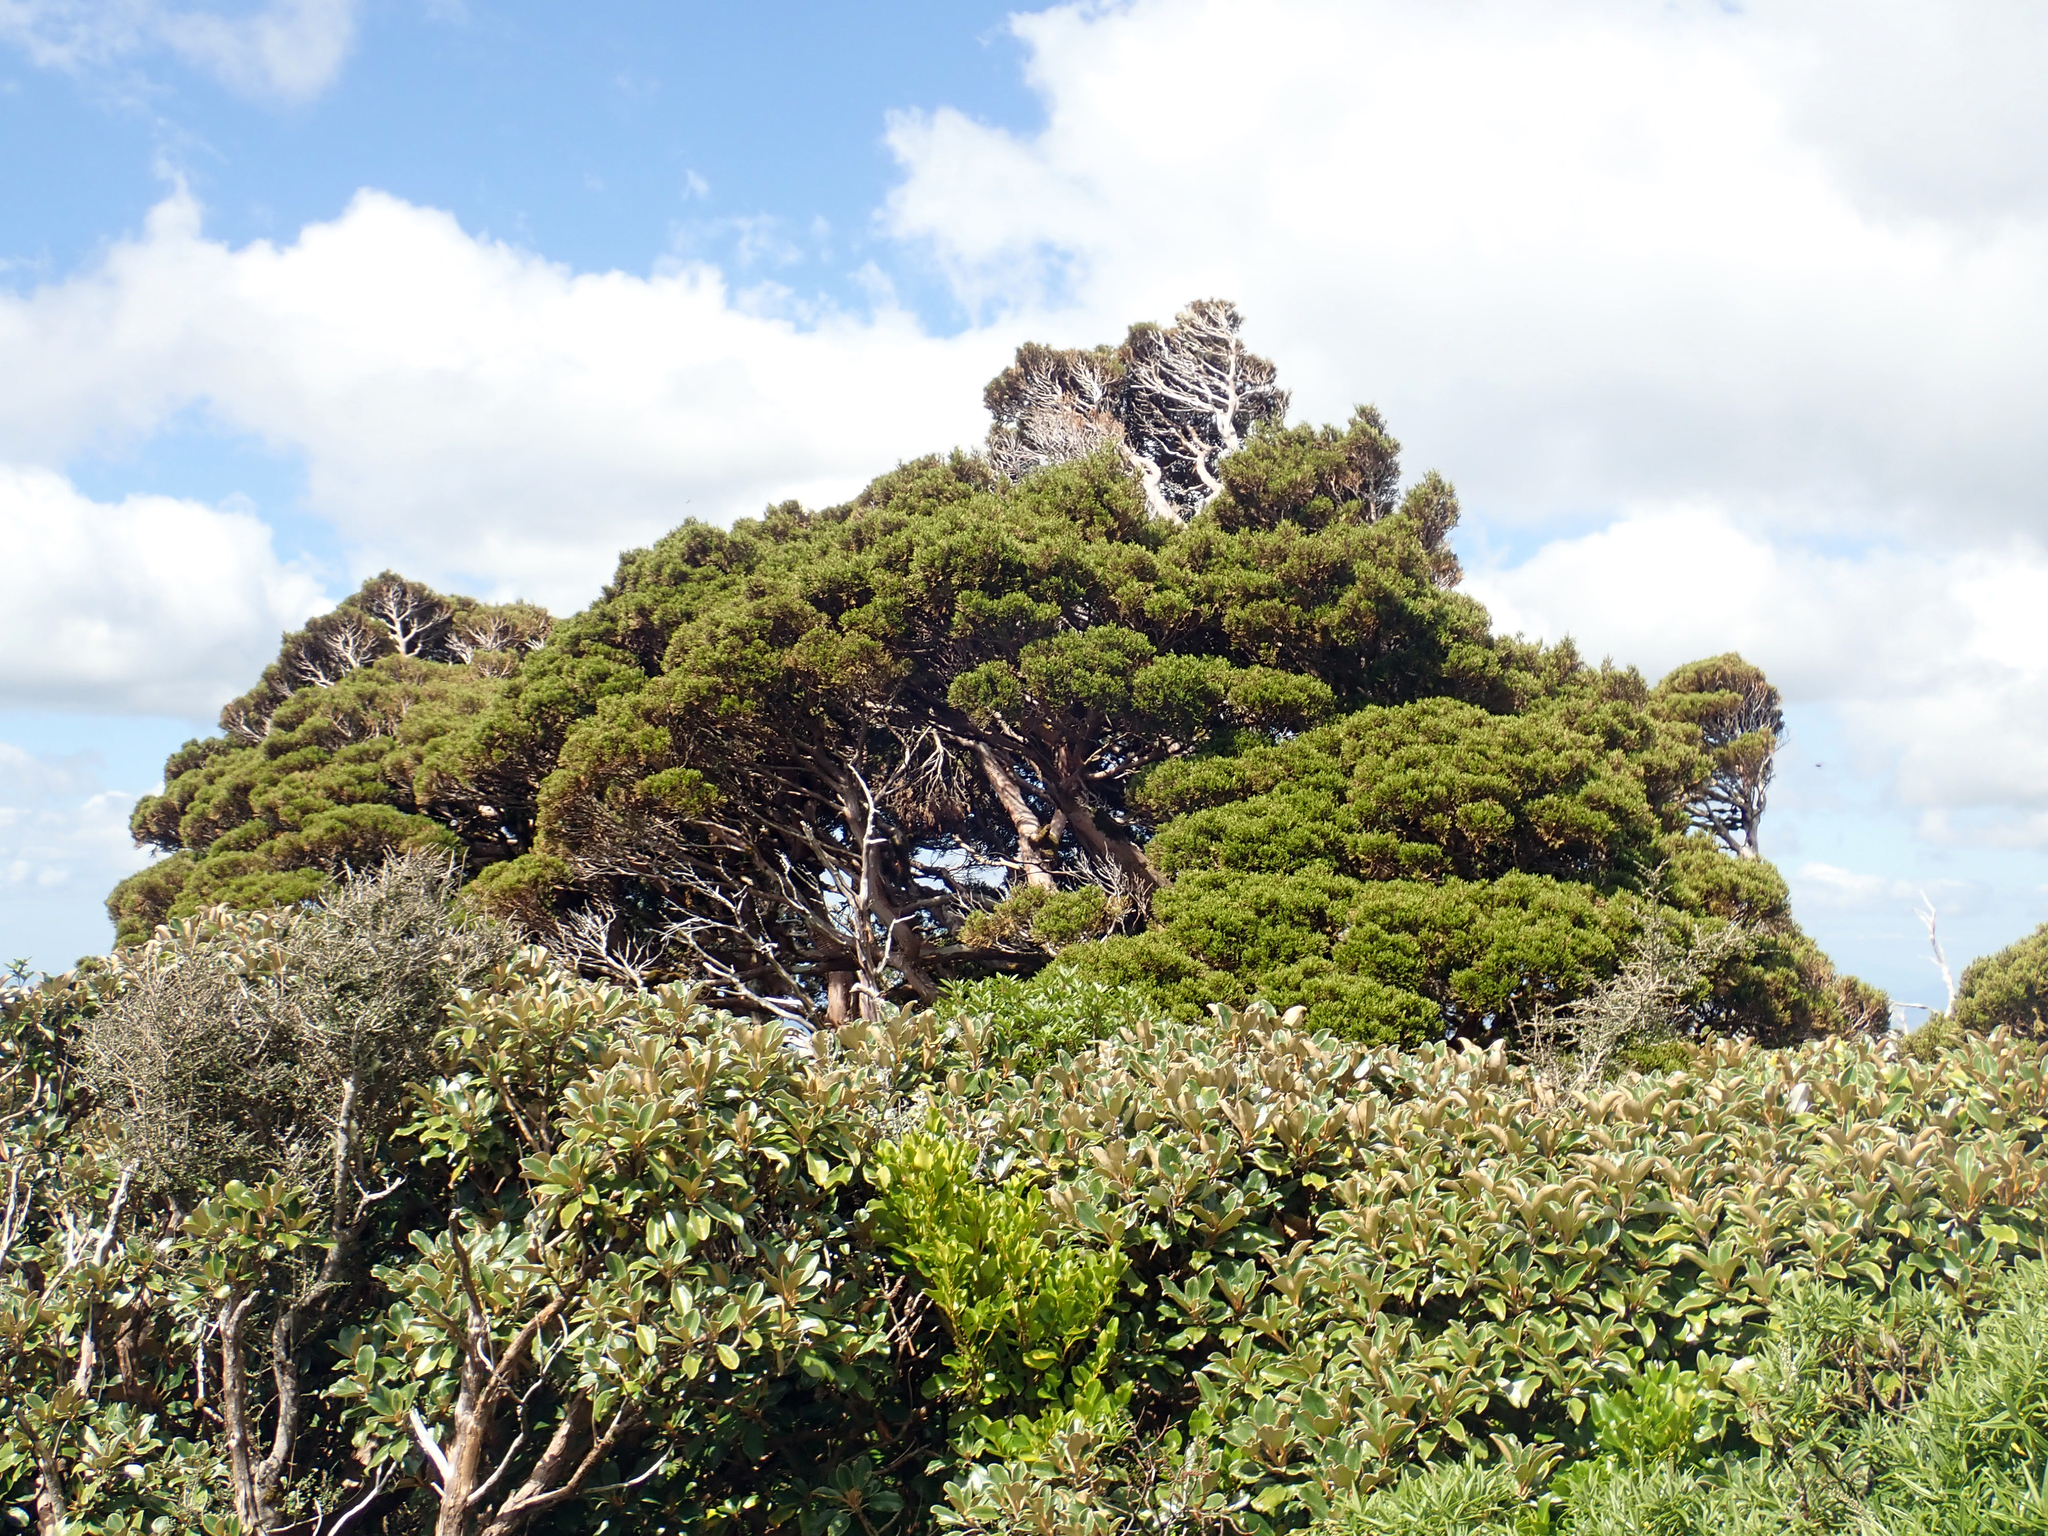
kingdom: Plantae
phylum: Tracheophyta
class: Pinopsida
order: Pinales
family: Cupressaceae
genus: Libocedrus
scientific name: Libocedrus bidwillii
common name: Cedar
